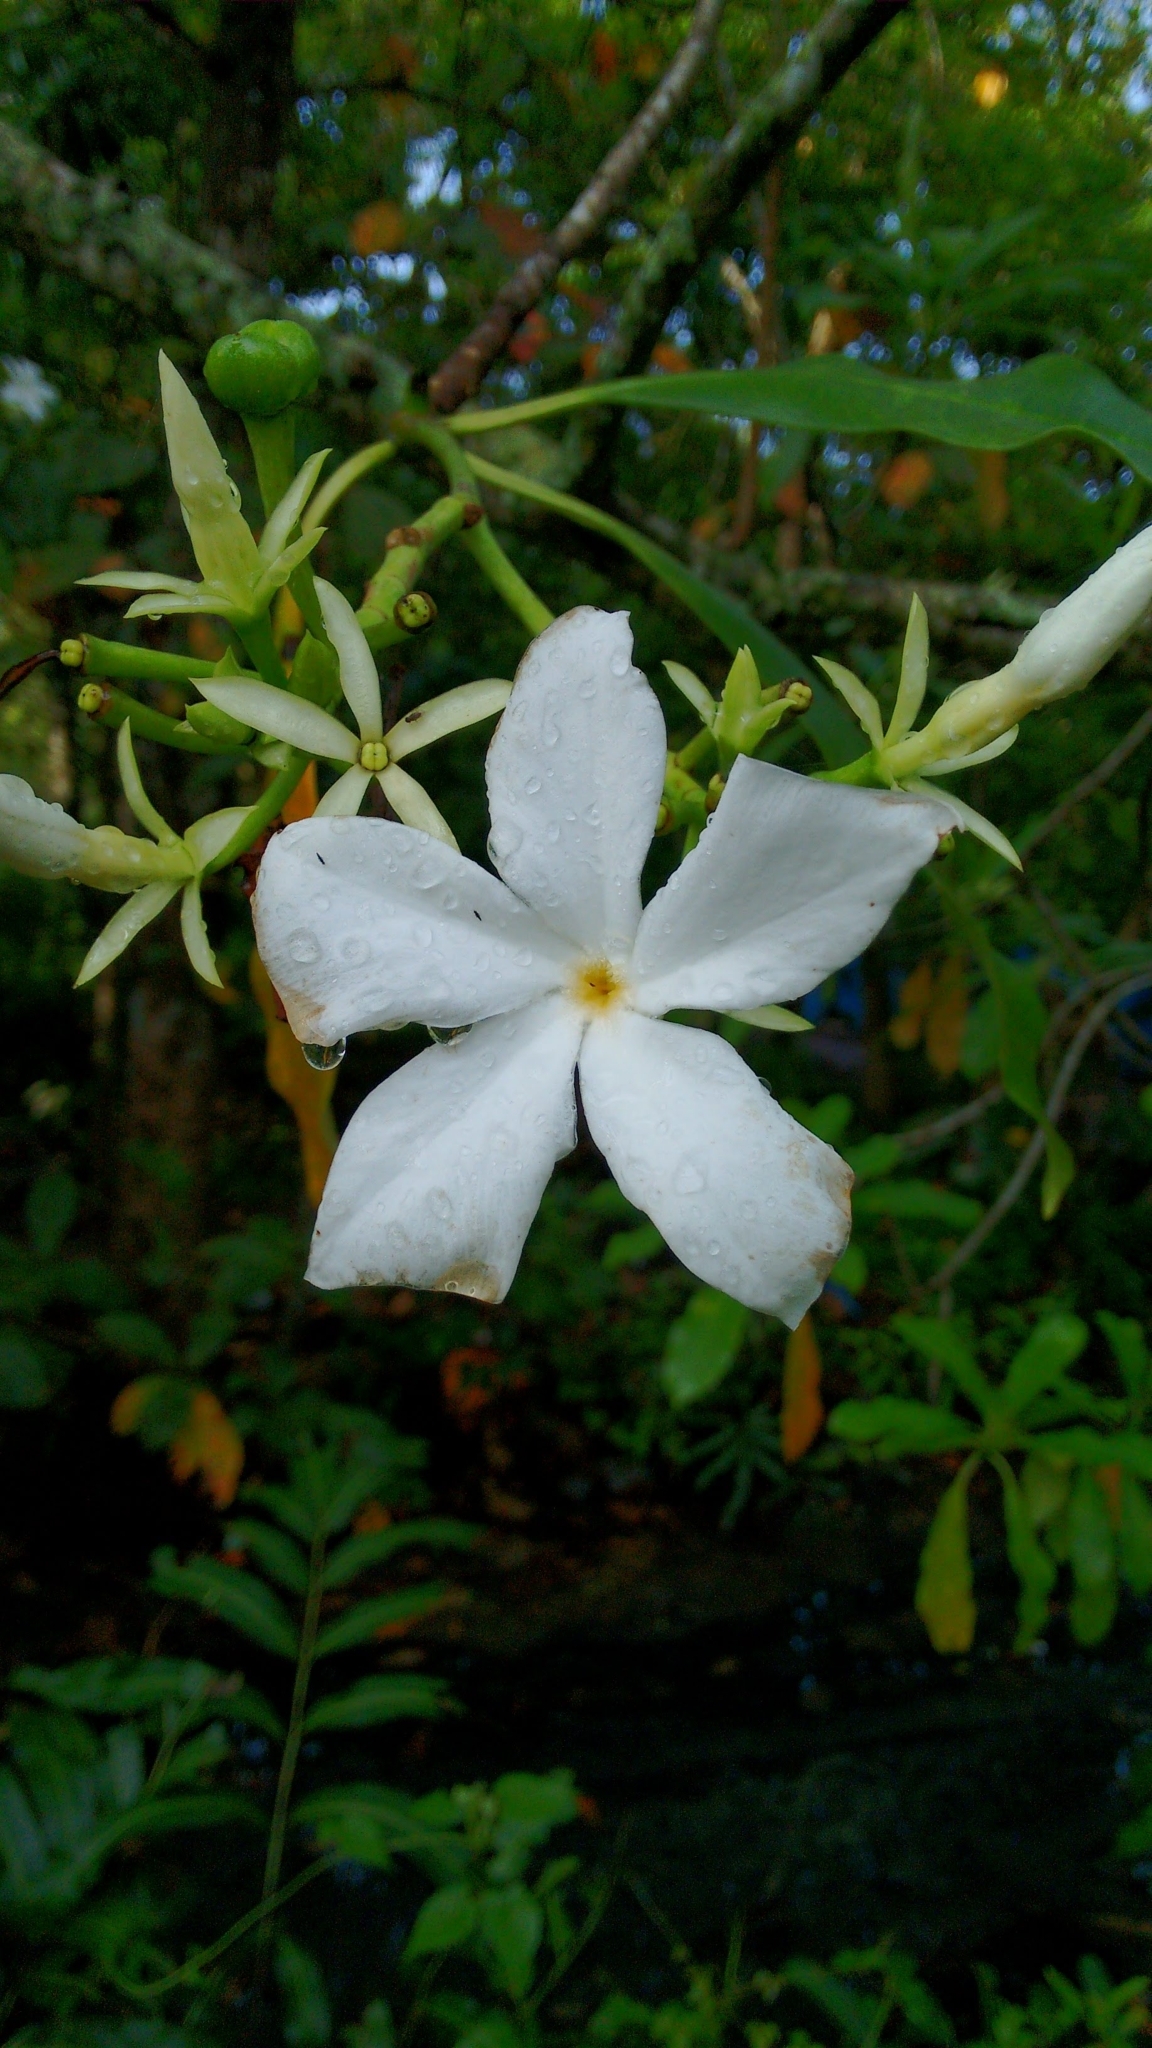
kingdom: Plantae
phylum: Tracheophyta
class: Magnoliopsida
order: Gentianales
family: Apocynaceae
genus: Cerbera
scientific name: Cerbera odollam
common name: Pong-pong
